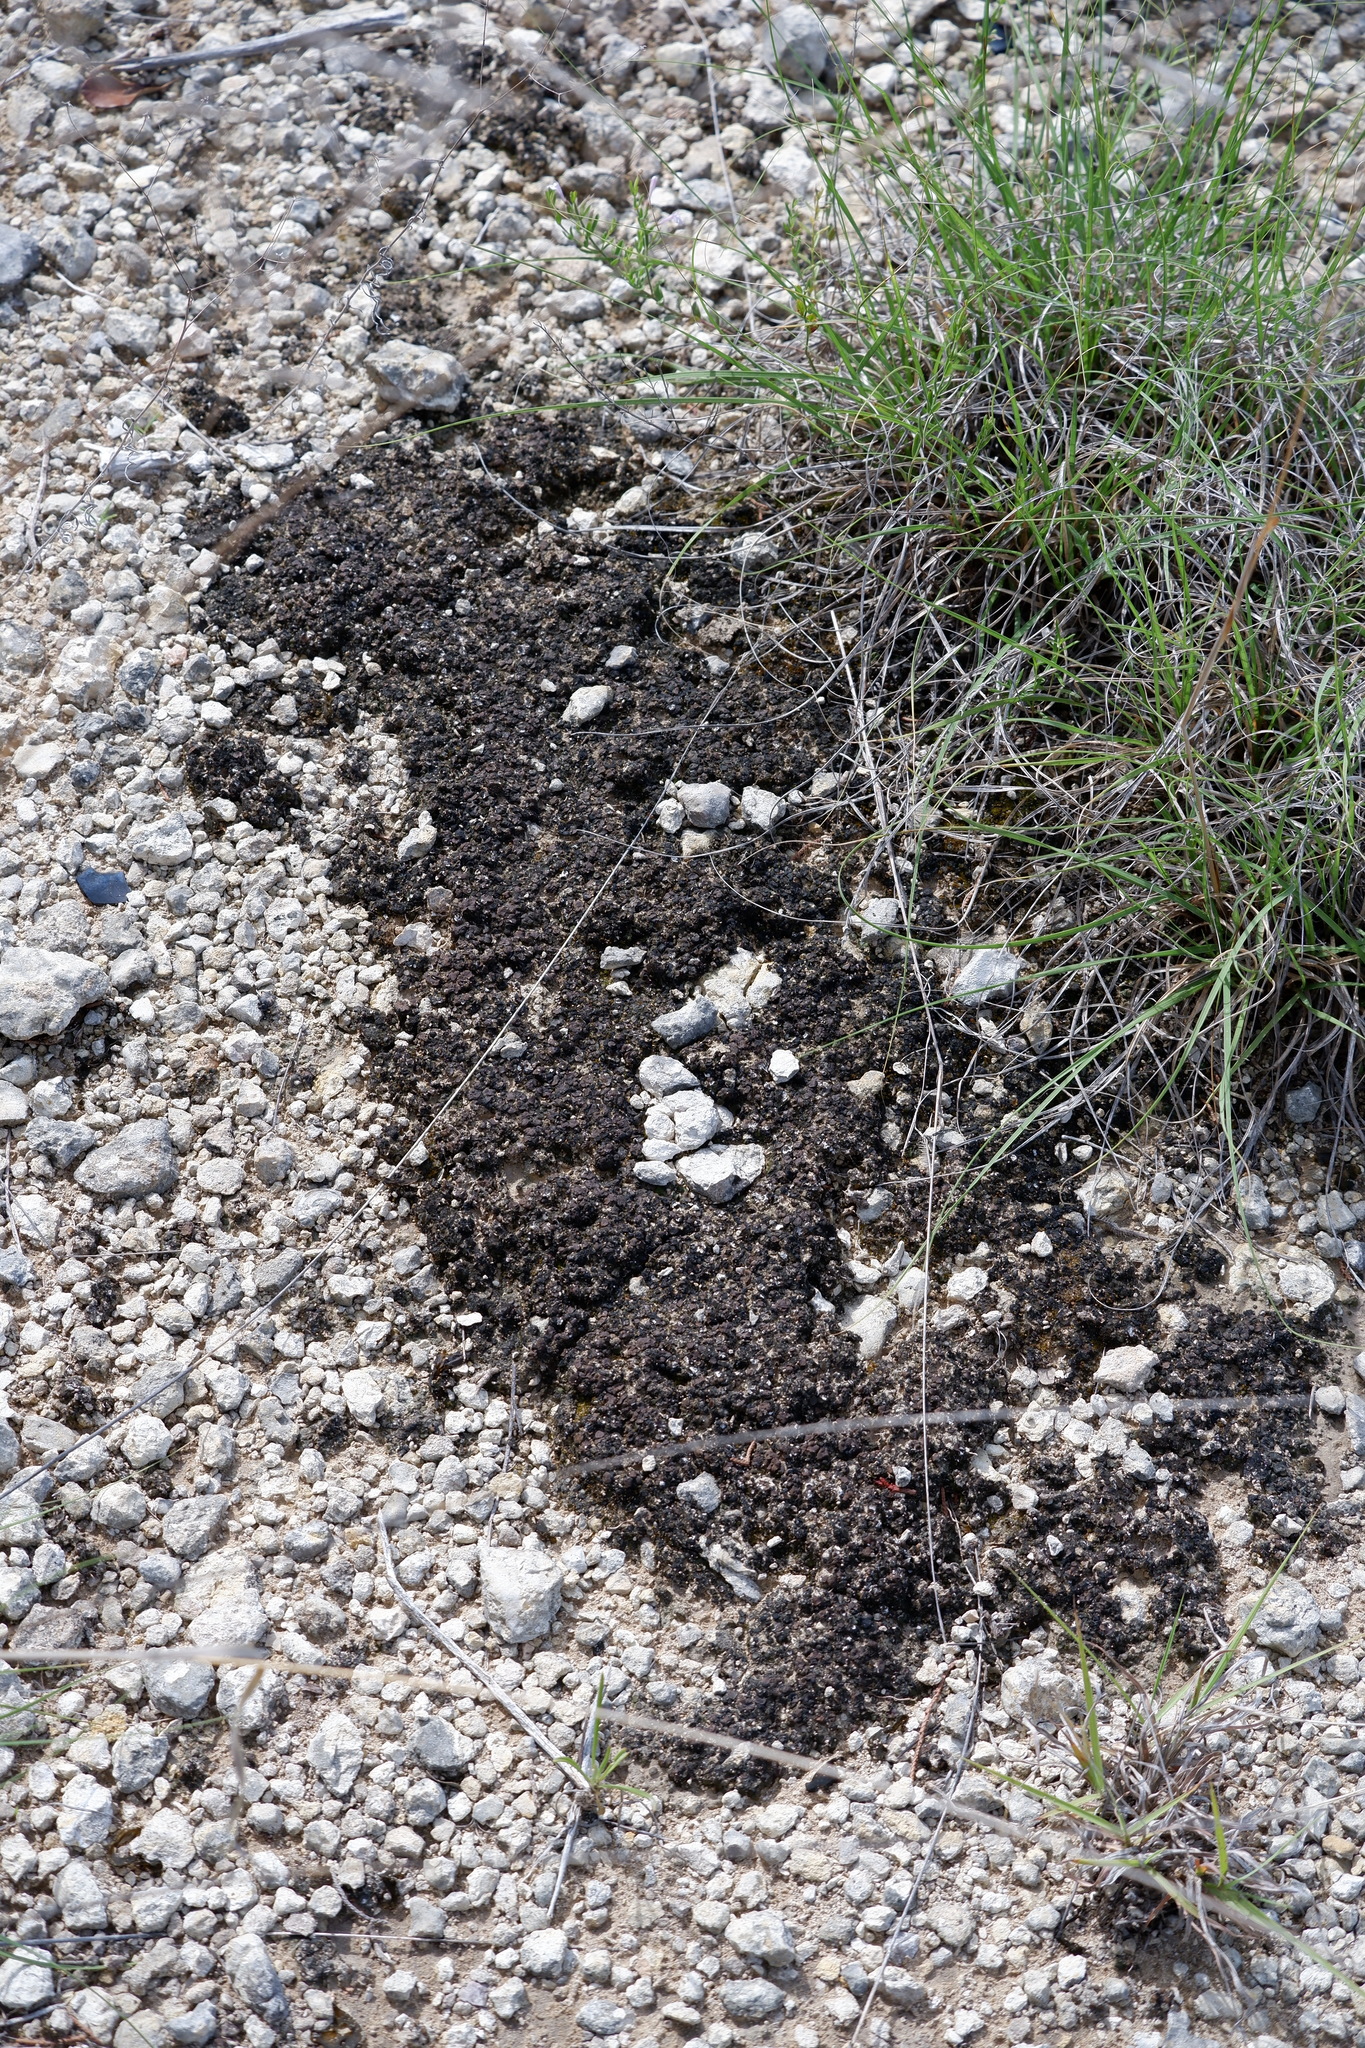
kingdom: Fungi
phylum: Ascomycota
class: Eurotiomycetes
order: Verrucariales
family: Verrucariaceae
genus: Clavascidium
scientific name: Clavascidium lacinulatum
